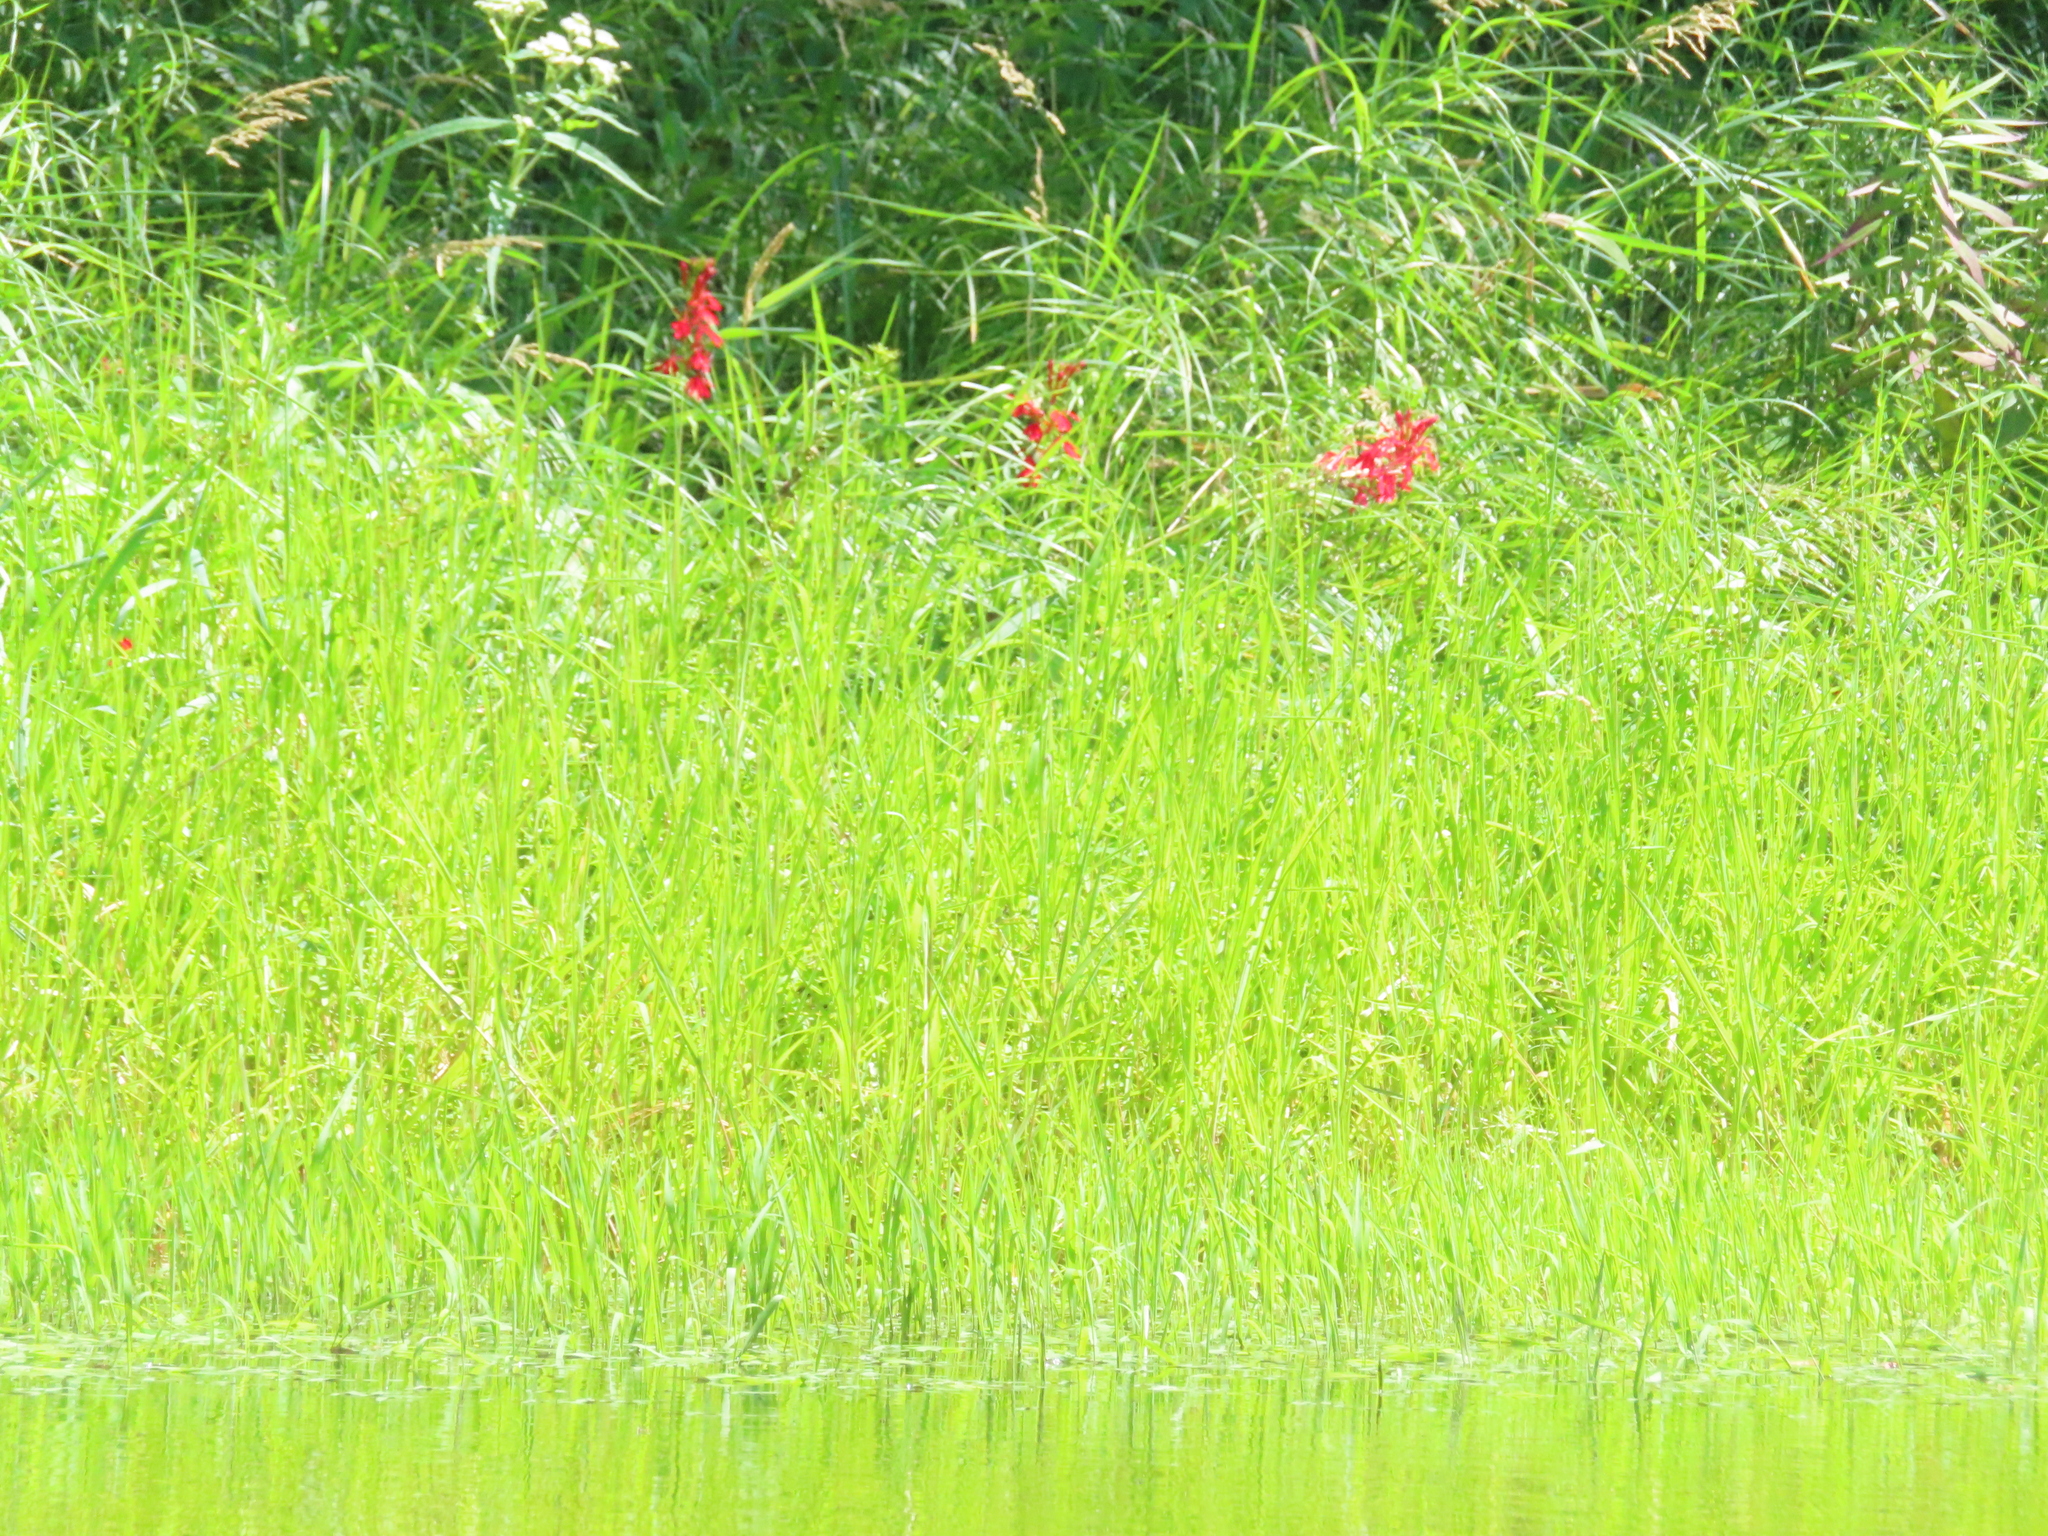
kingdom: Plantae
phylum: Tracheophyta
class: Magnoliopsida
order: Asterales
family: Campanulaceae
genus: Lobelia
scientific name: Lobelia cardinalis
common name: Cardinal flower
